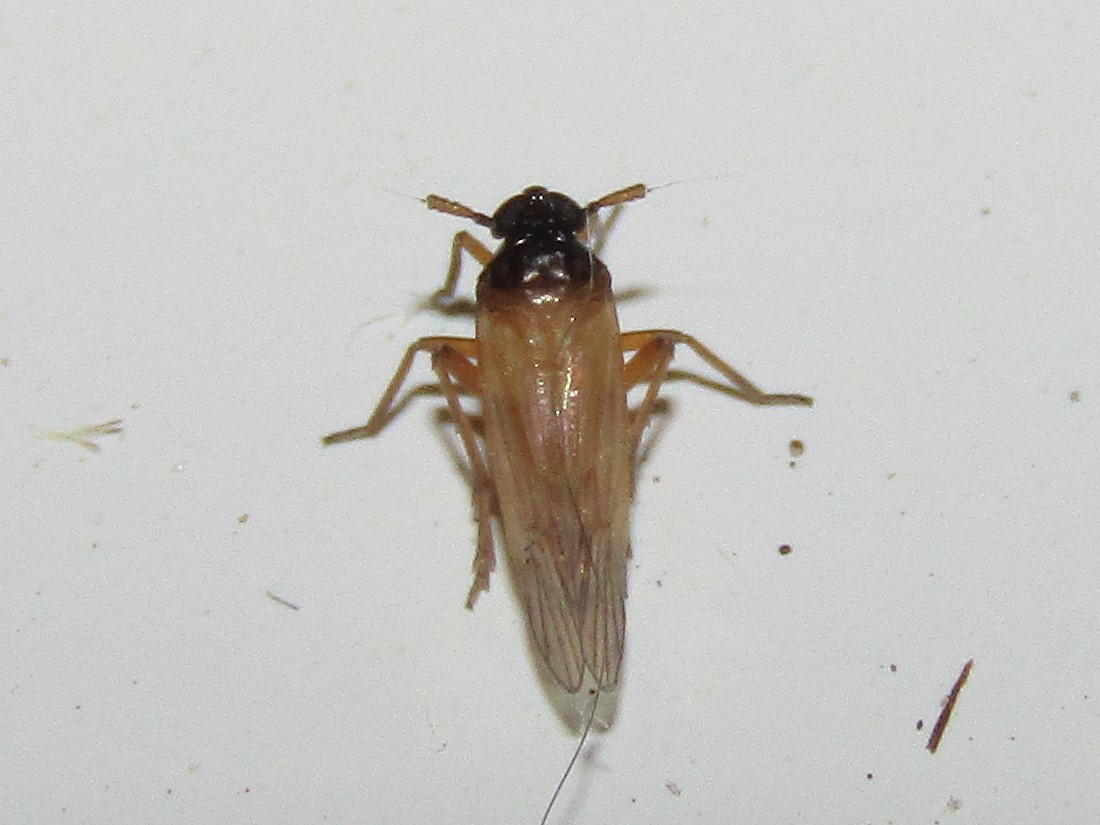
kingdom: Animalia
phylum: Arthropoda
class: Insecta
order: Hemiptera
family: Delphacidae
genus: Penepissonotus
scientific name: Penepissonotus bicolor
